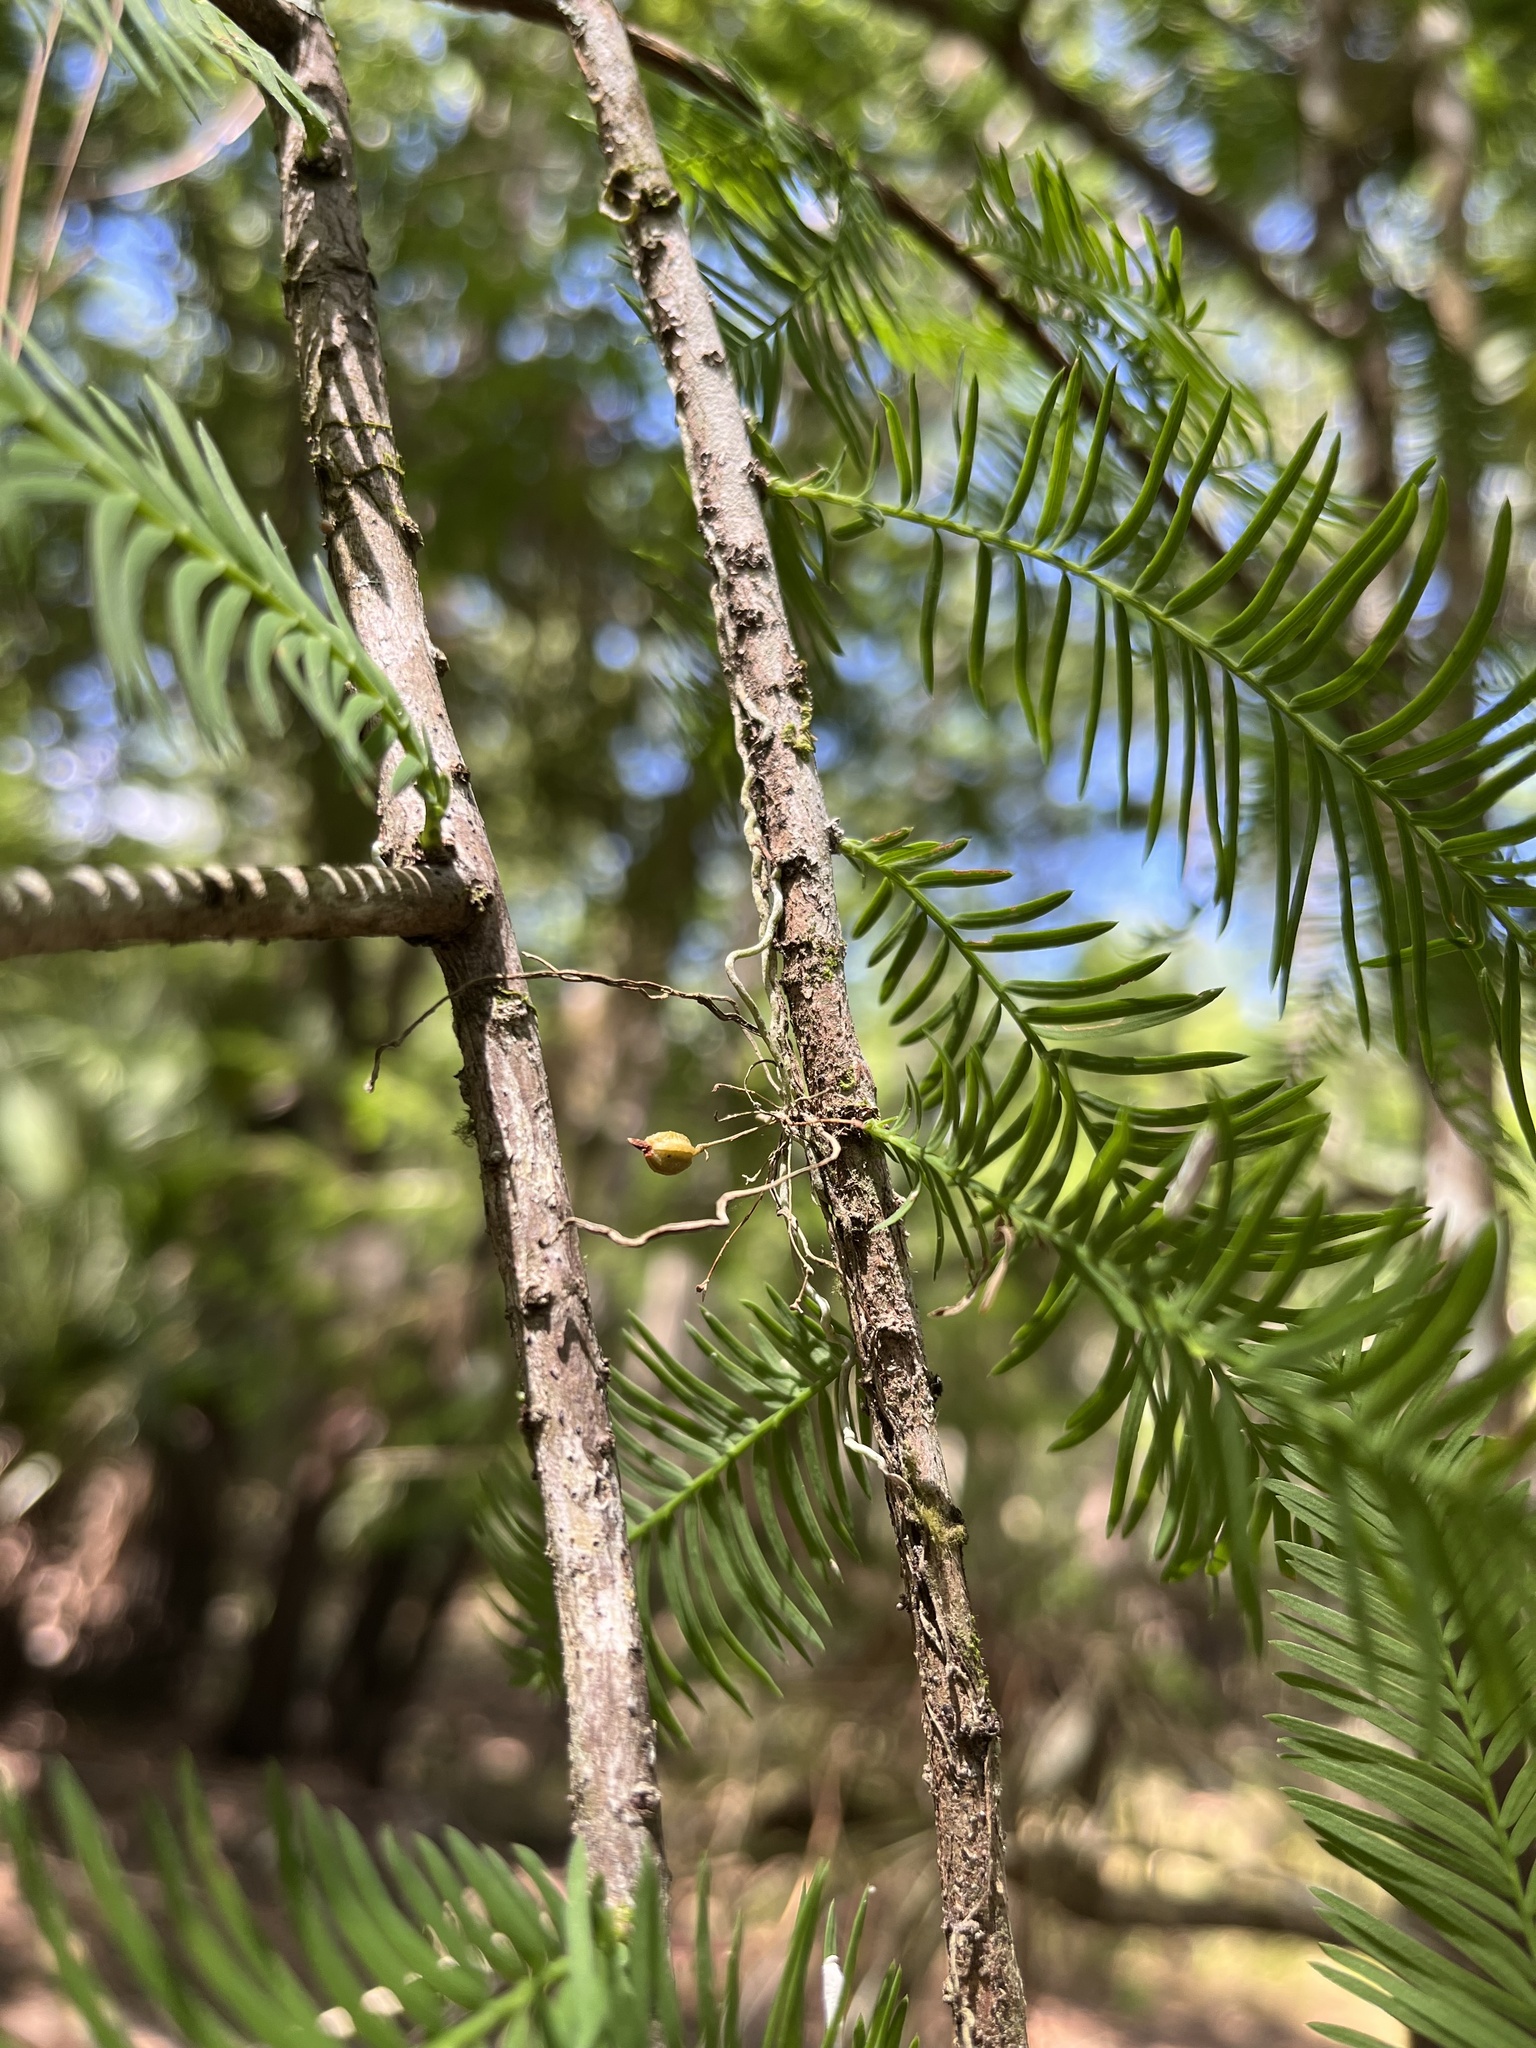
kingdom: Plantae
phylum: Tracheophyta
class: Liliopsida
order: Asparagales
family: Orchidaceae
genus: Dendrophylax
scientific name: Dendrophylax porrectus
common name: Needleroot airplant orchid
